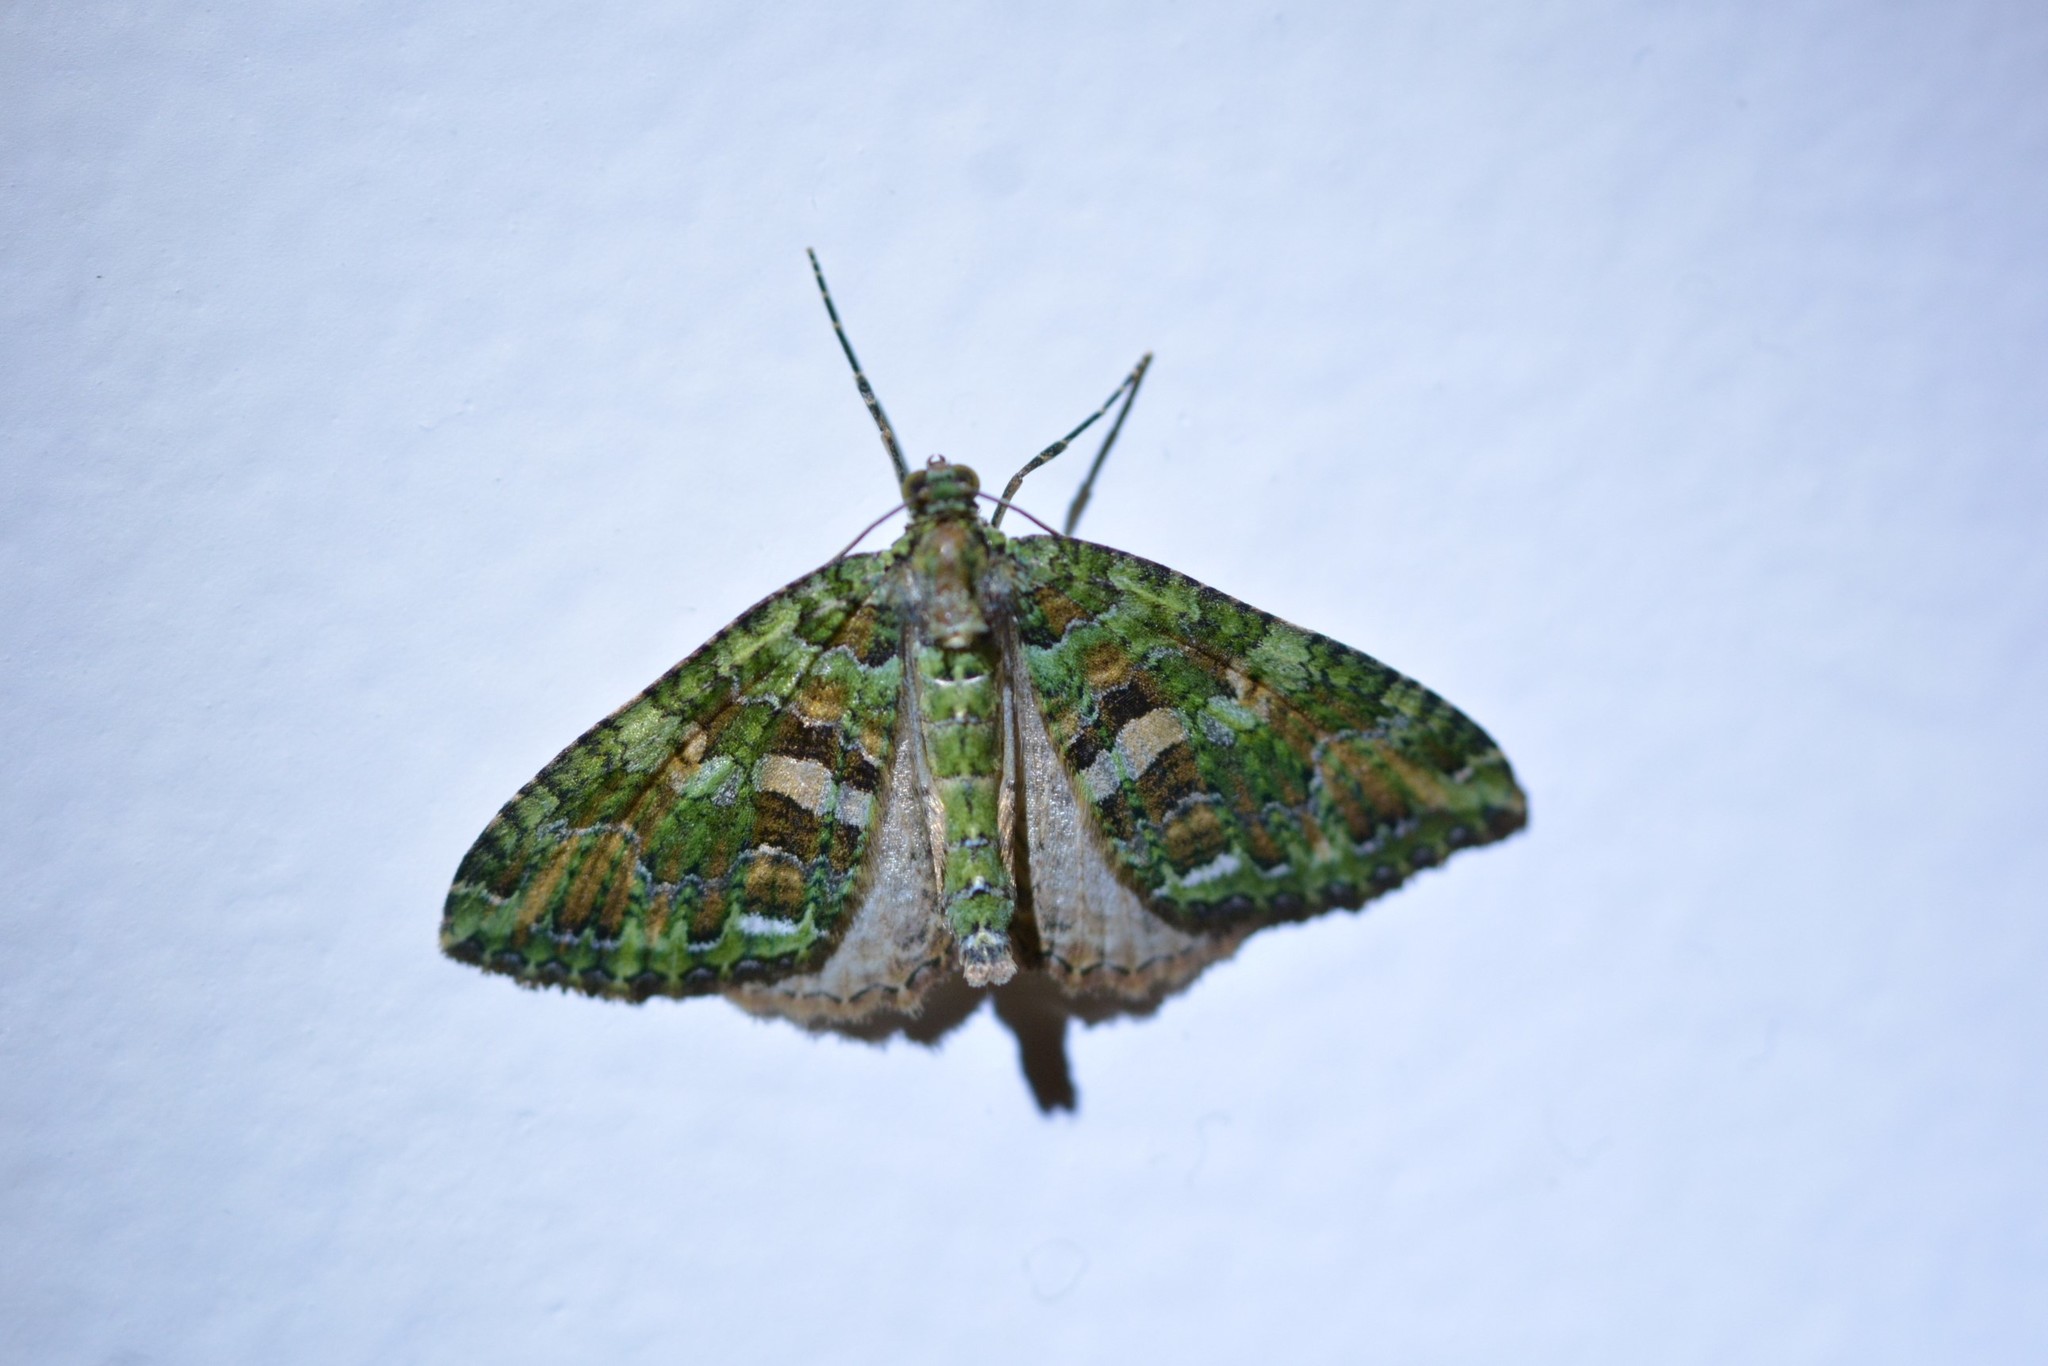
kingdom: Animalia
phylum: Arthropoda
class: Insecta
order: Lepidoptera
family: Geometridae
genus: Austrocidaria
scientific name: Austrocidaria similata
